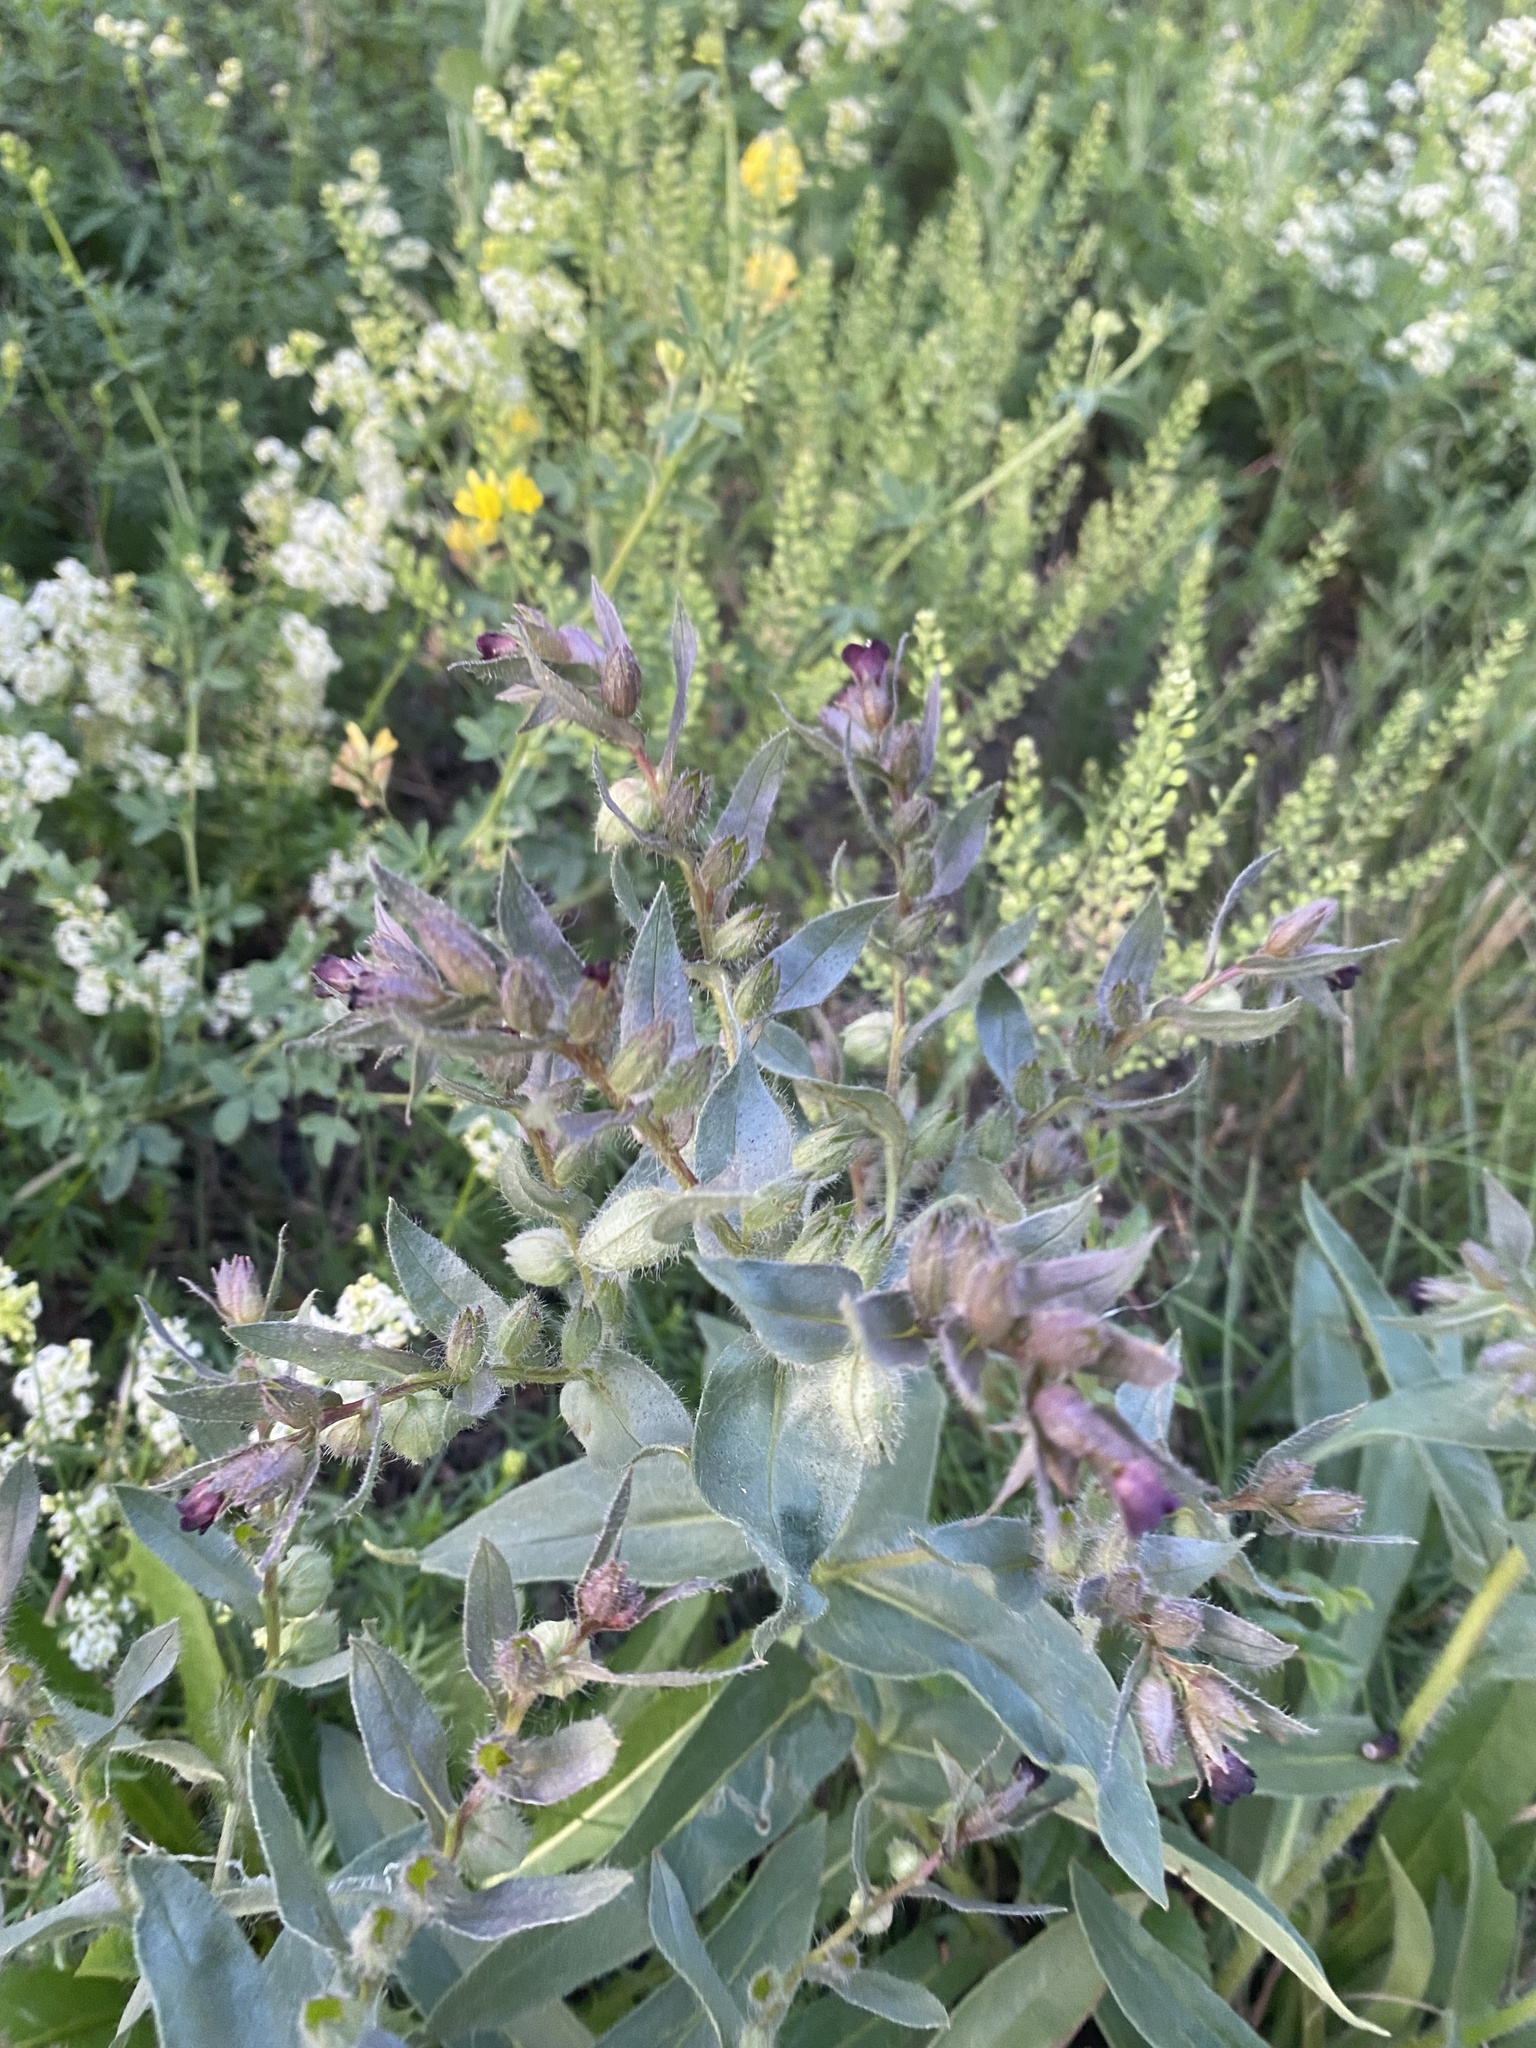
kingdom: Plantae
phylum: Tracheophyta
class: Magnoliopsida
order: Boraginales
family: Boraginaceae
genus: Nonea
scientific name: Nonea pulla
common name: Brown nonea
